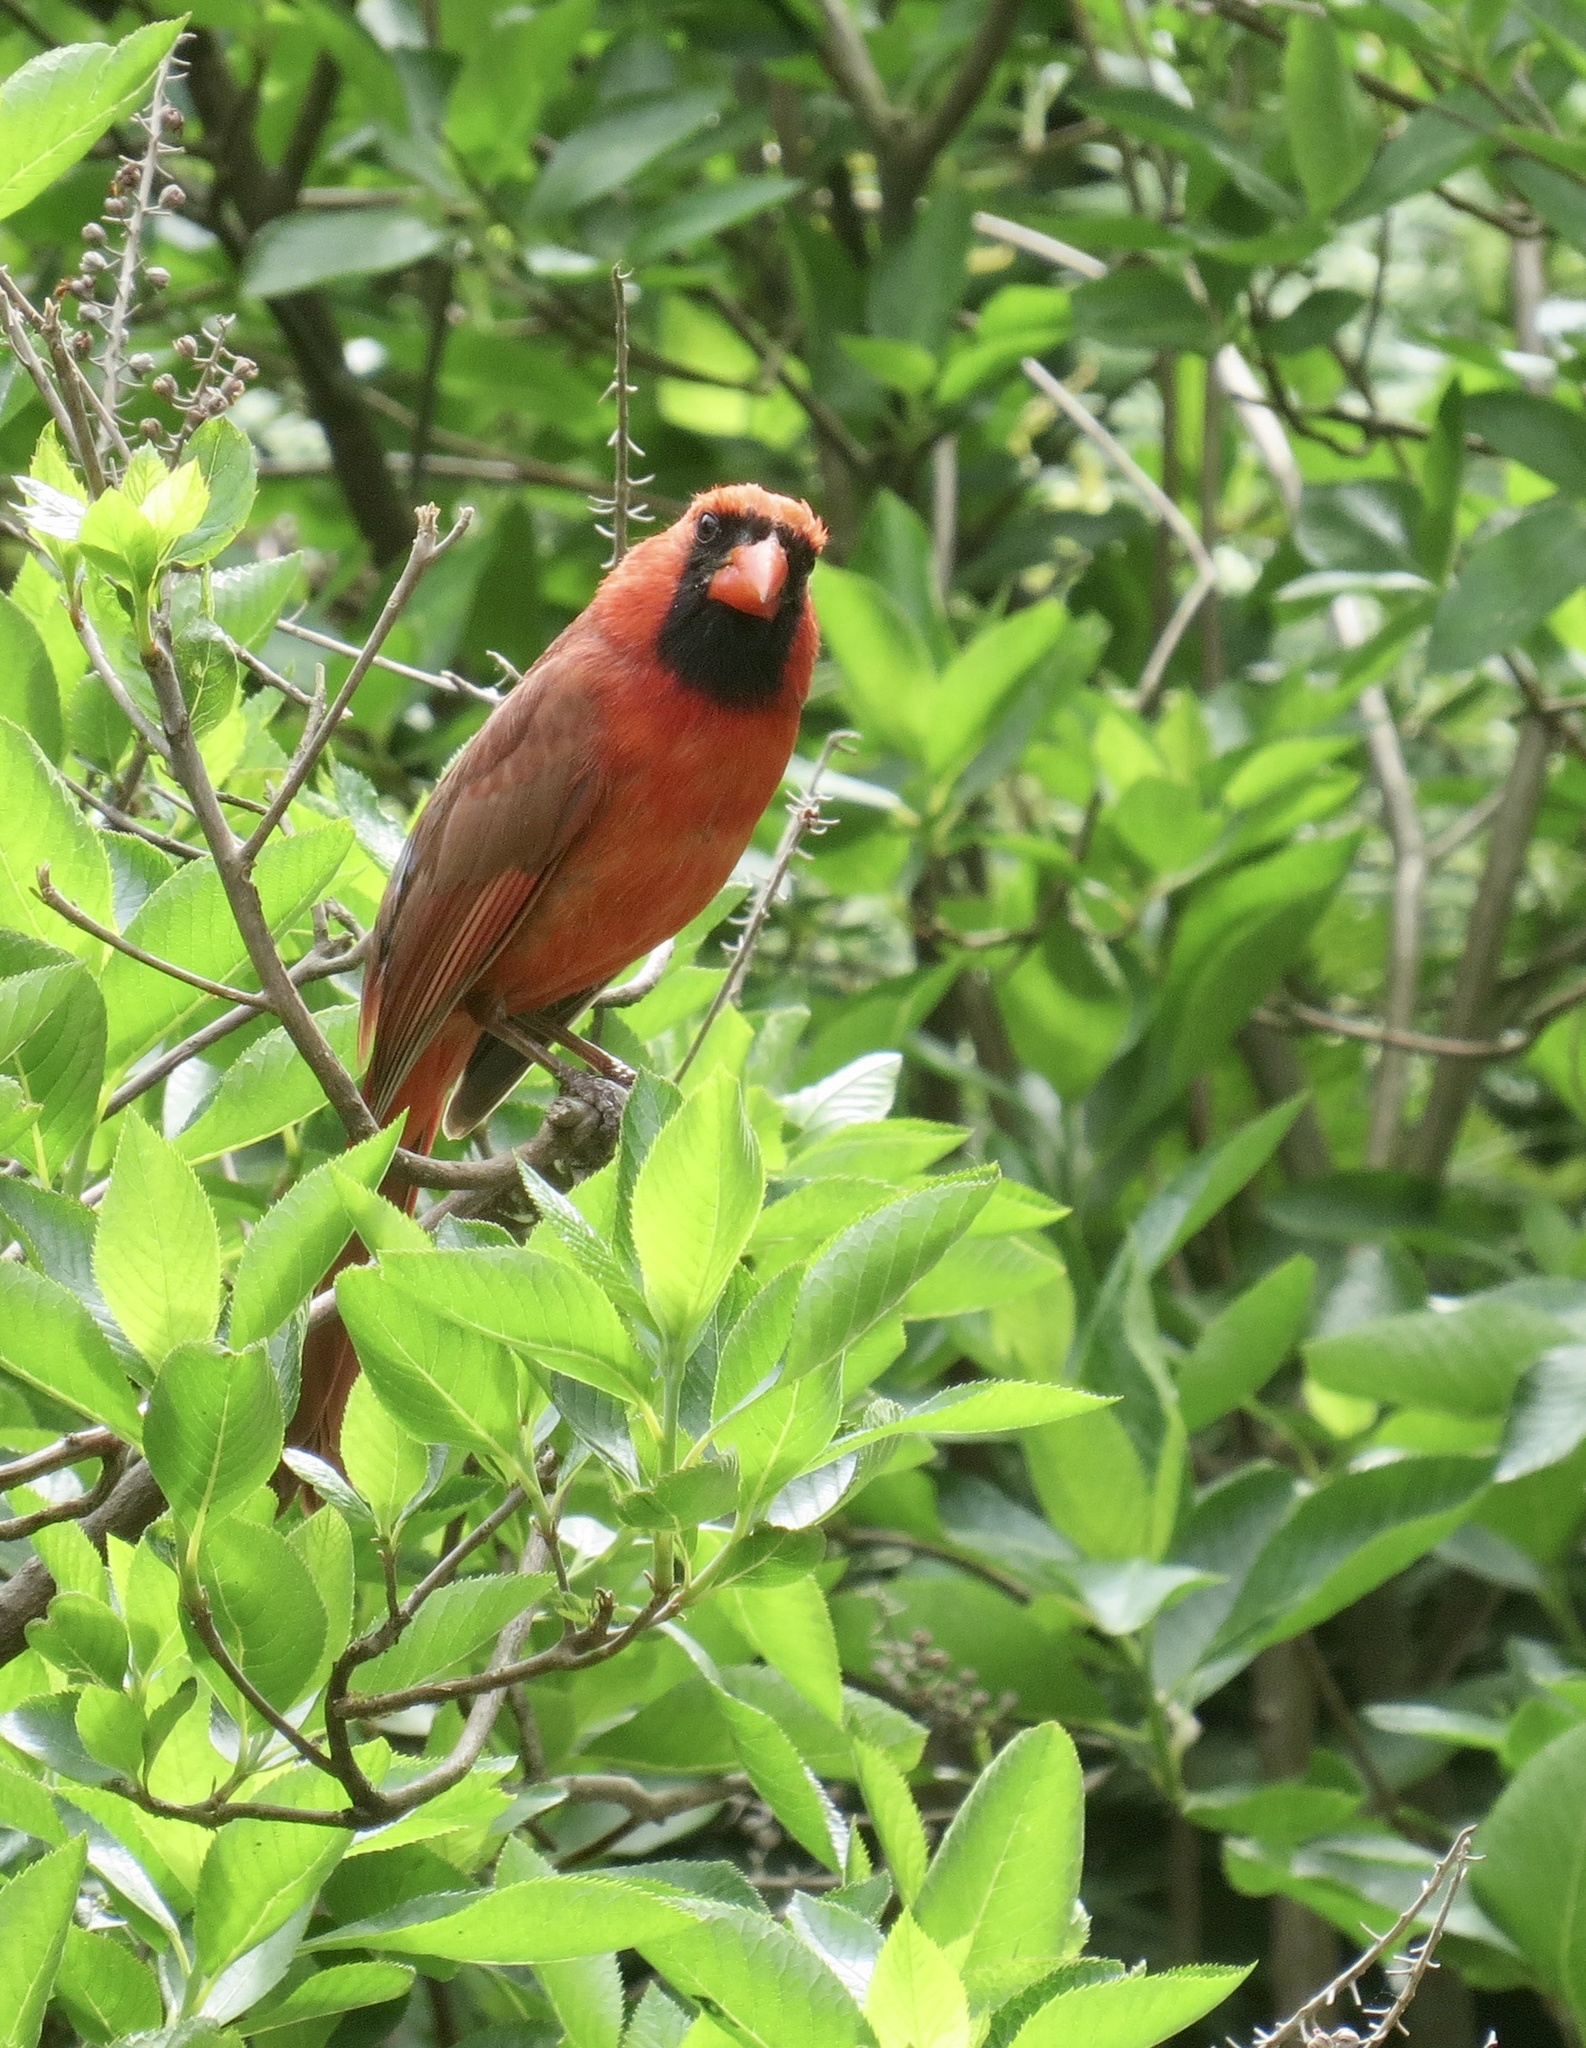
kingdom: Animalia
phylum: Chordata
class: Aves
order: Passeriformes
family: Cardinalidae
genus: Cardinalis
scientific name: Cardinalis cardinalis
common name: Northern cardinal
